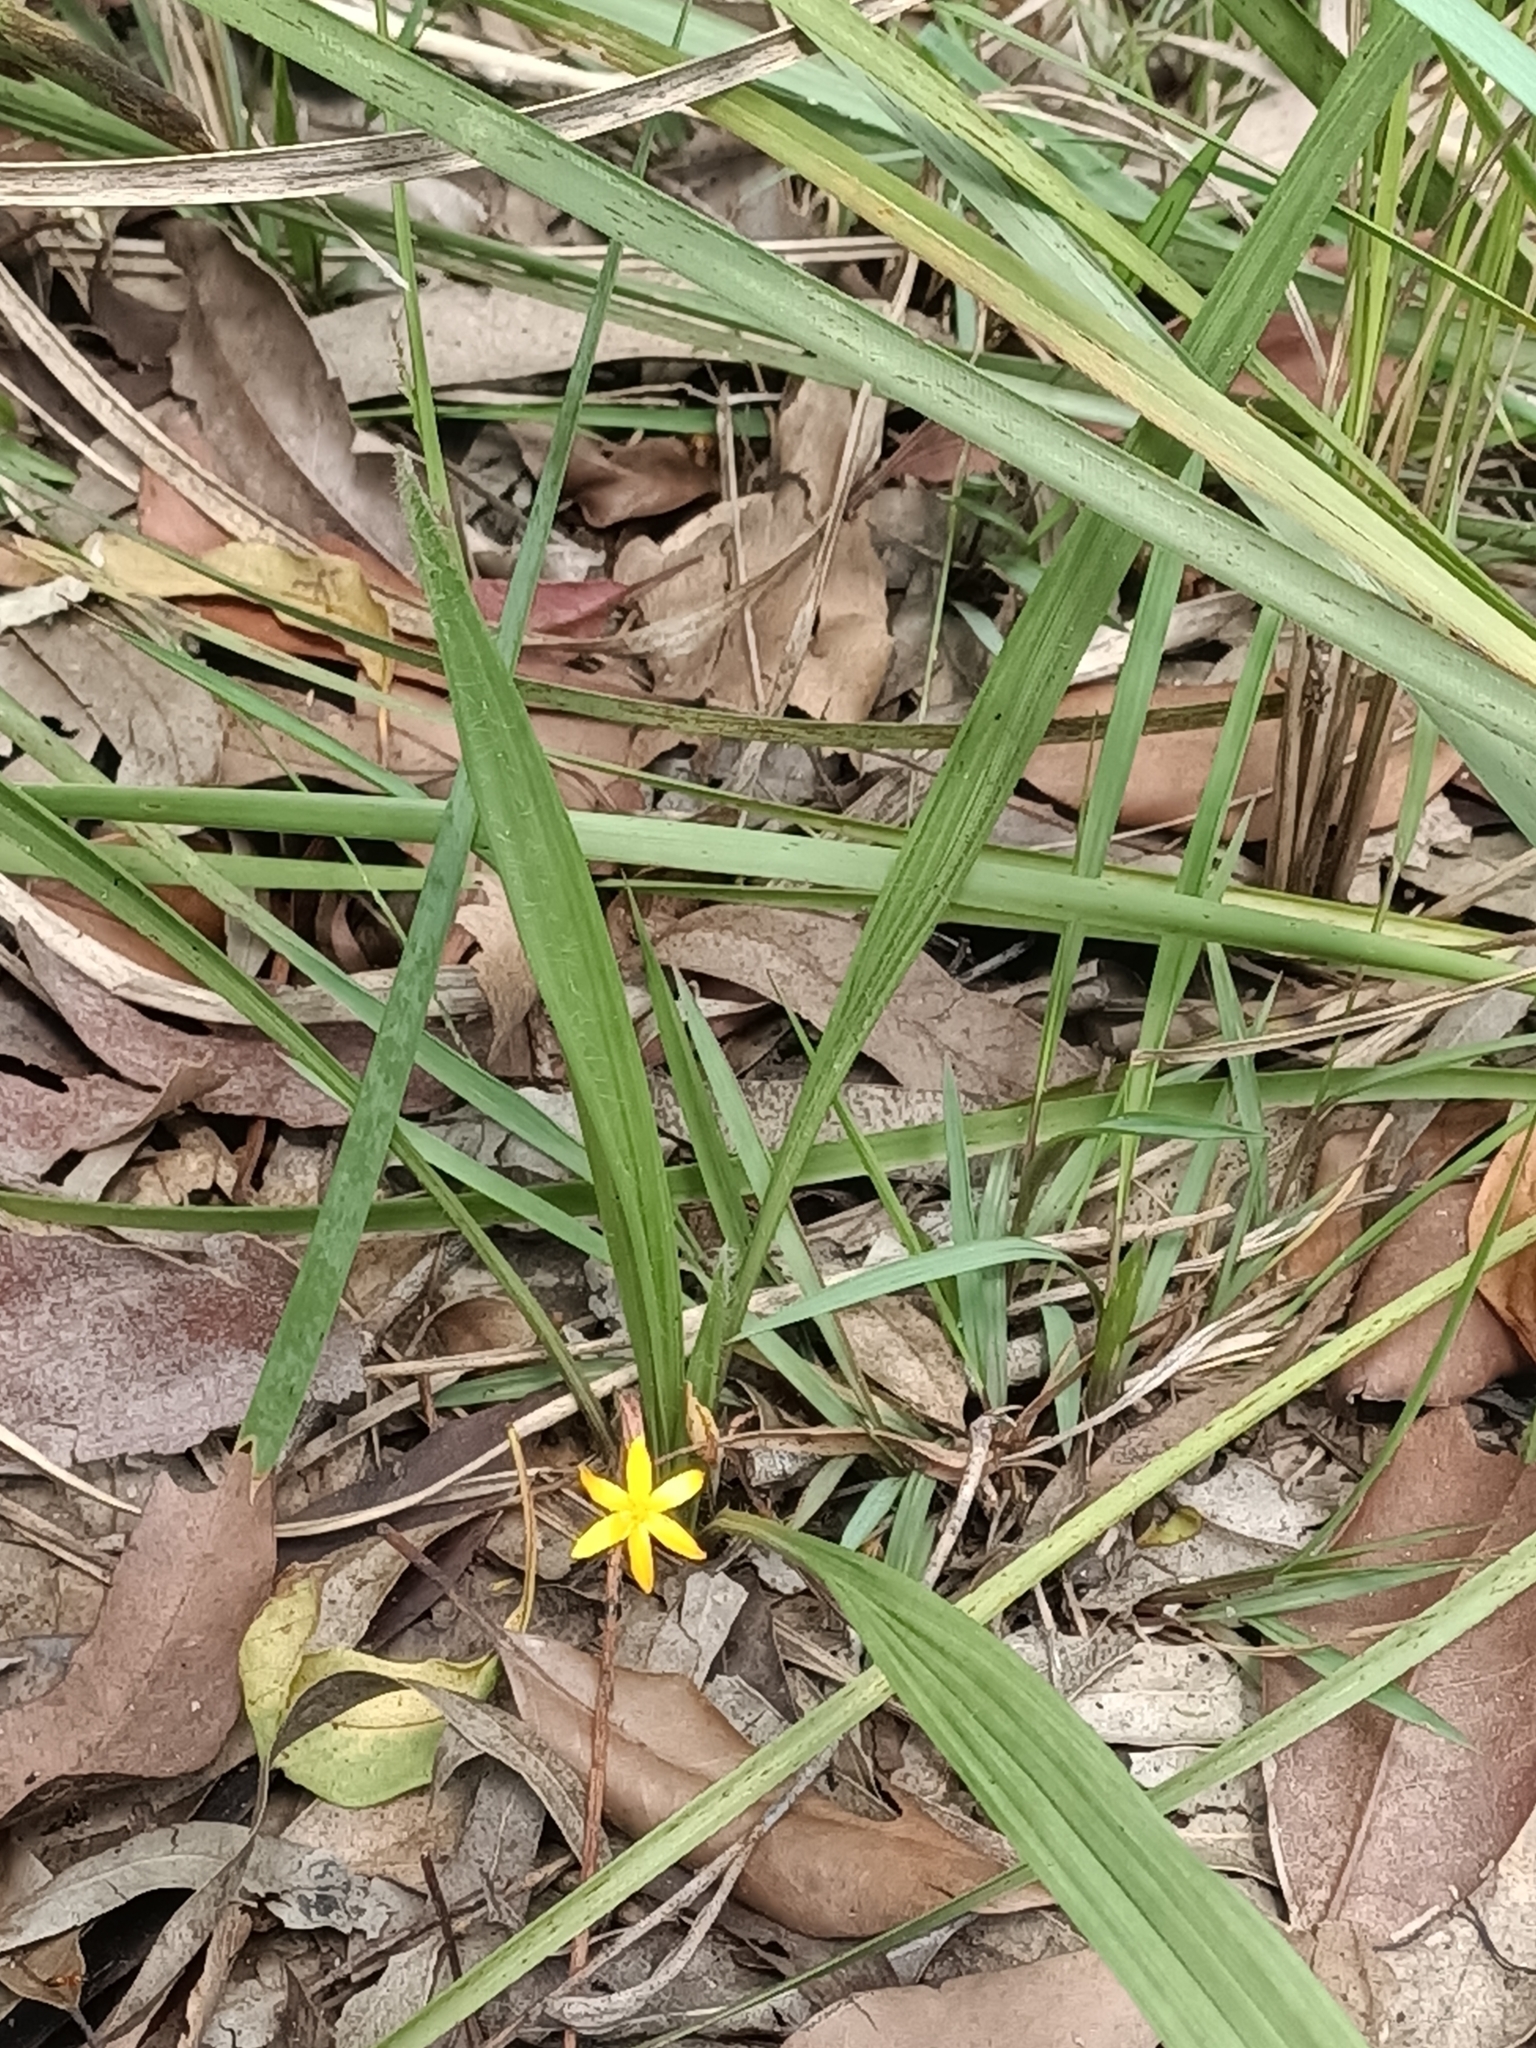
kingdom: Plantae
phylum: Tracheophyta
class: Liliopsida
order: Asparagales
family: Hypoxidaceae
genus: Curculigo
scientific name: Curculigo ensifolia
